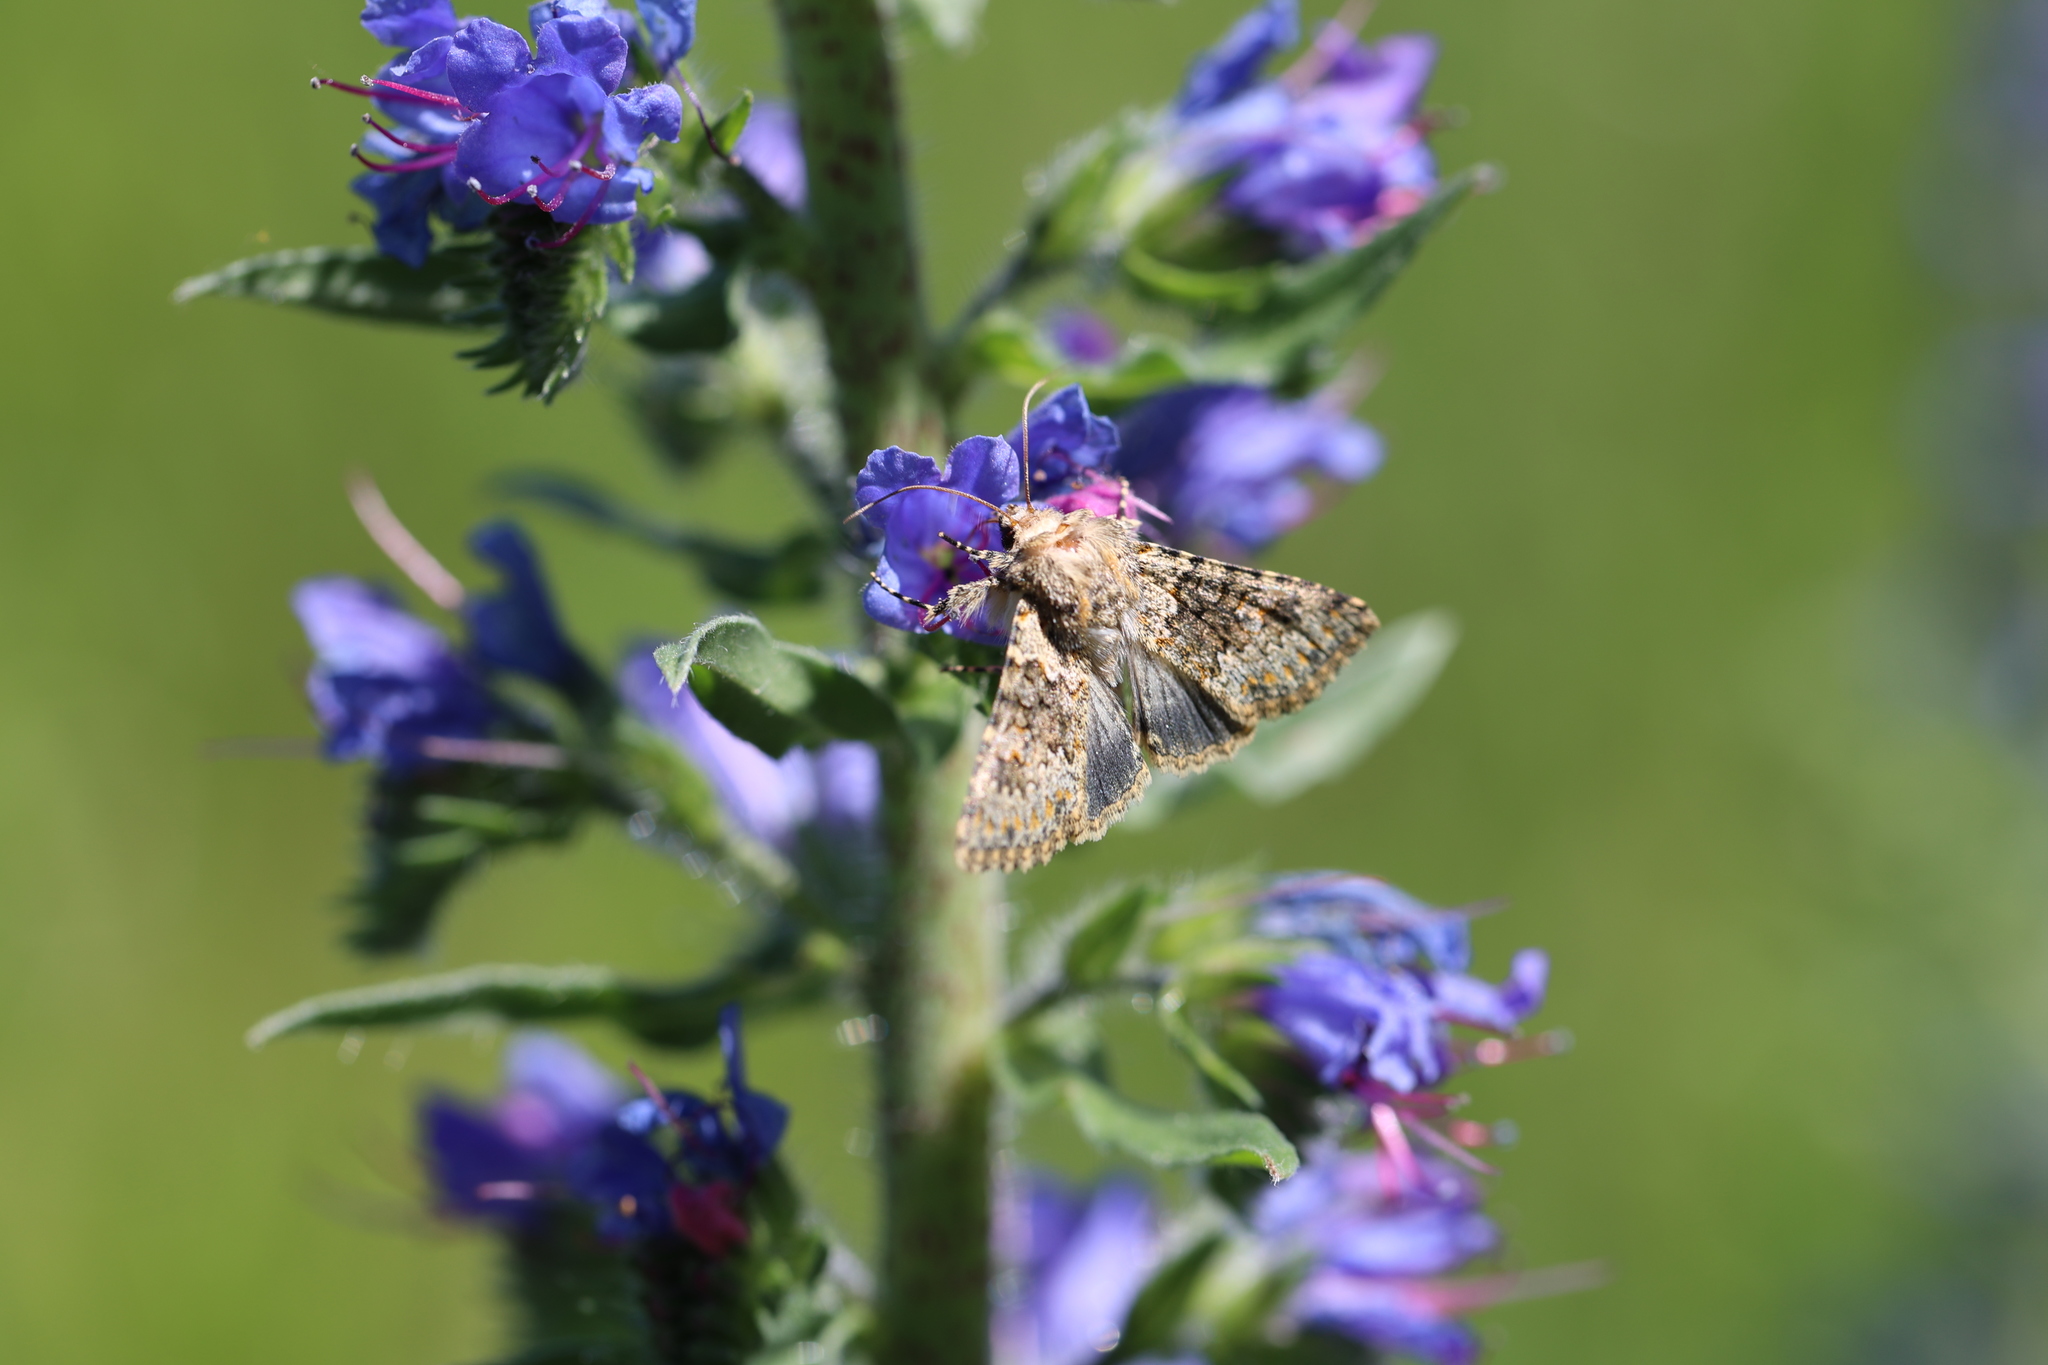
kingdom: Animalia
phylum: Arthropoda
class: Insecta
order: Lepidoptera
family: Noctuidae
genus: Hecatera
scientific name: Hecatera dysodea
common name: Small ranunculus
